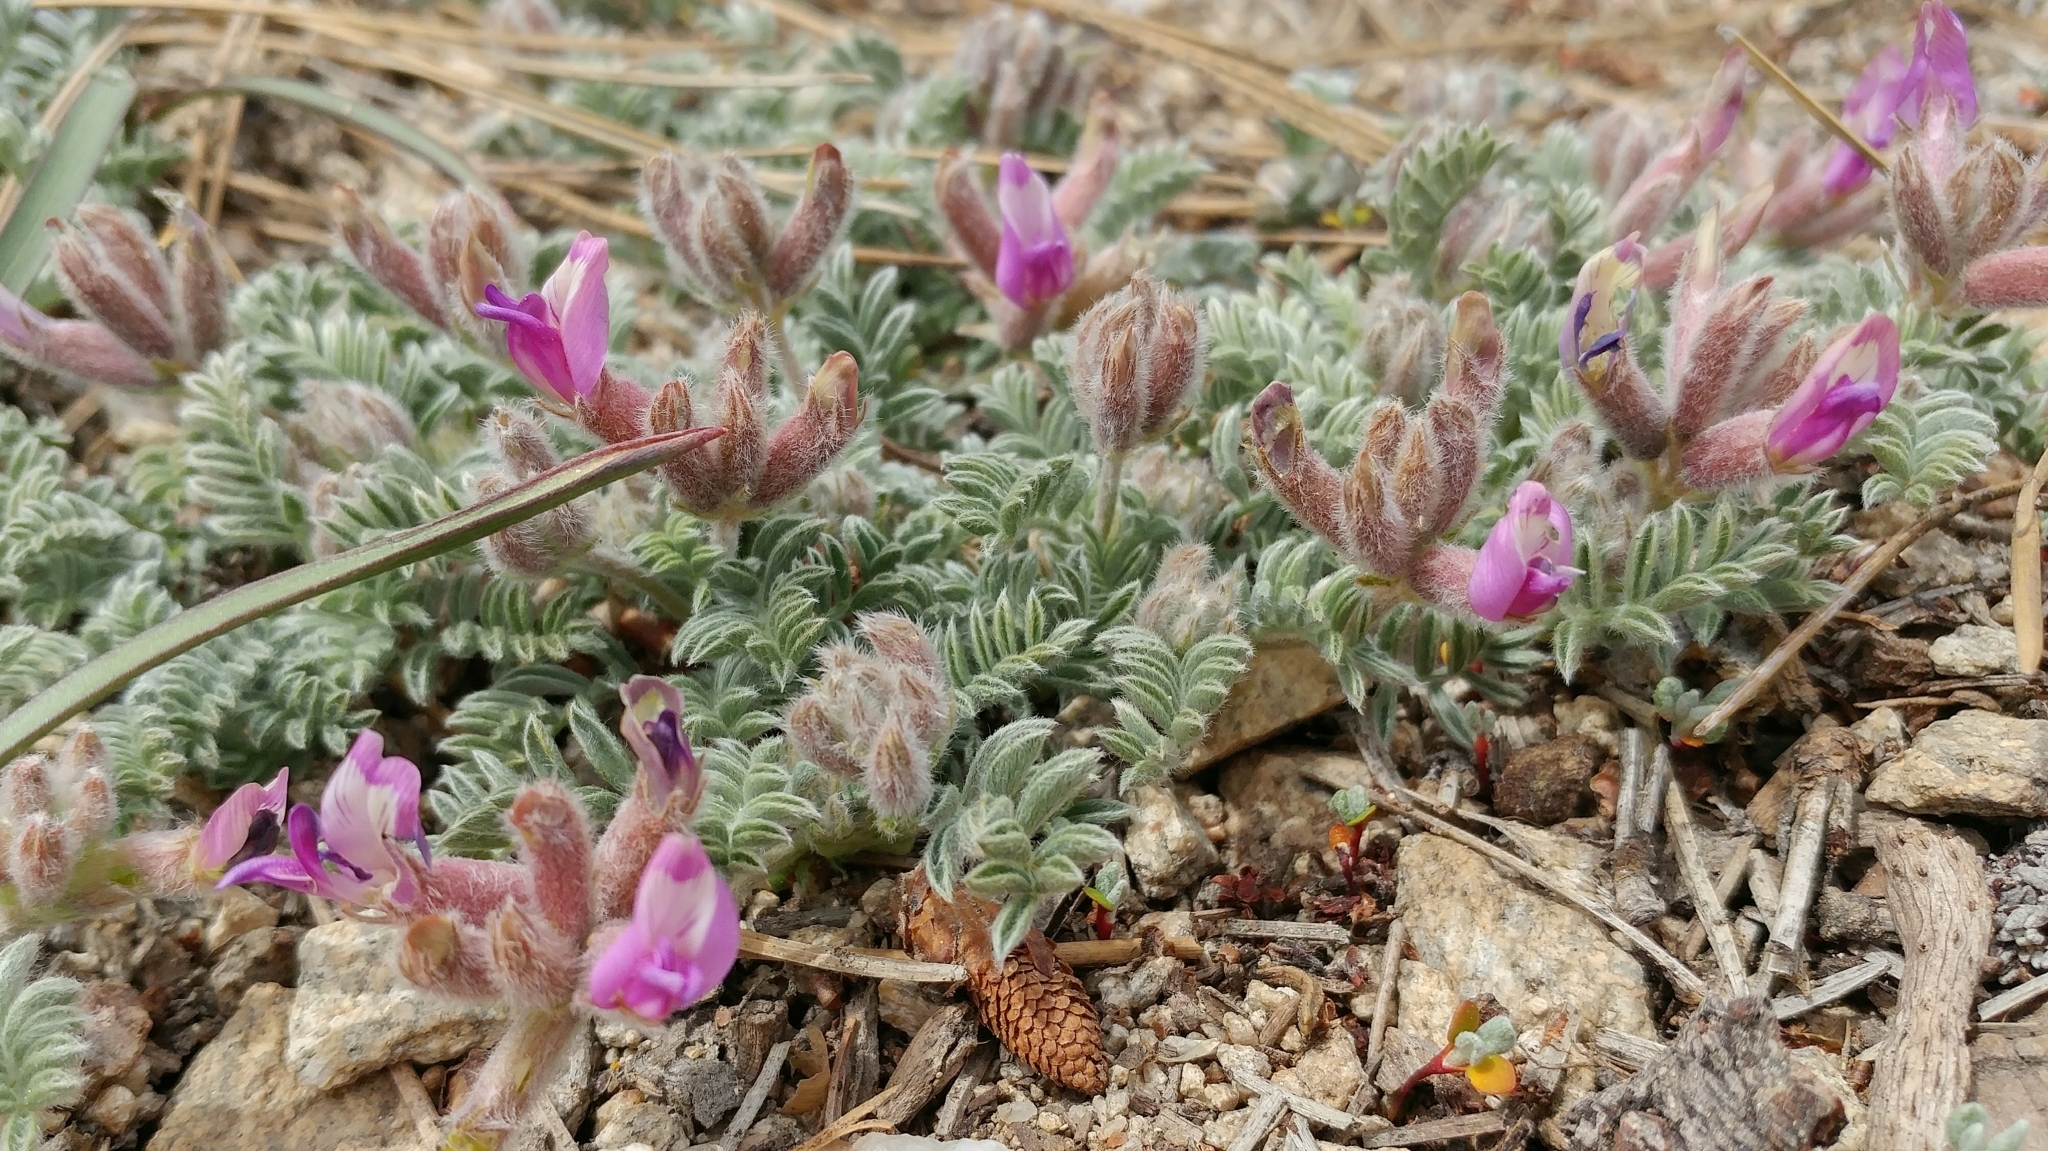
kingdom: Plantae
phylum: Tracheophyta
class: Magnoliopsida
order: Fabales
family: Fabaceae
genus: Astragalus
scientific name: Astragalus purshii
